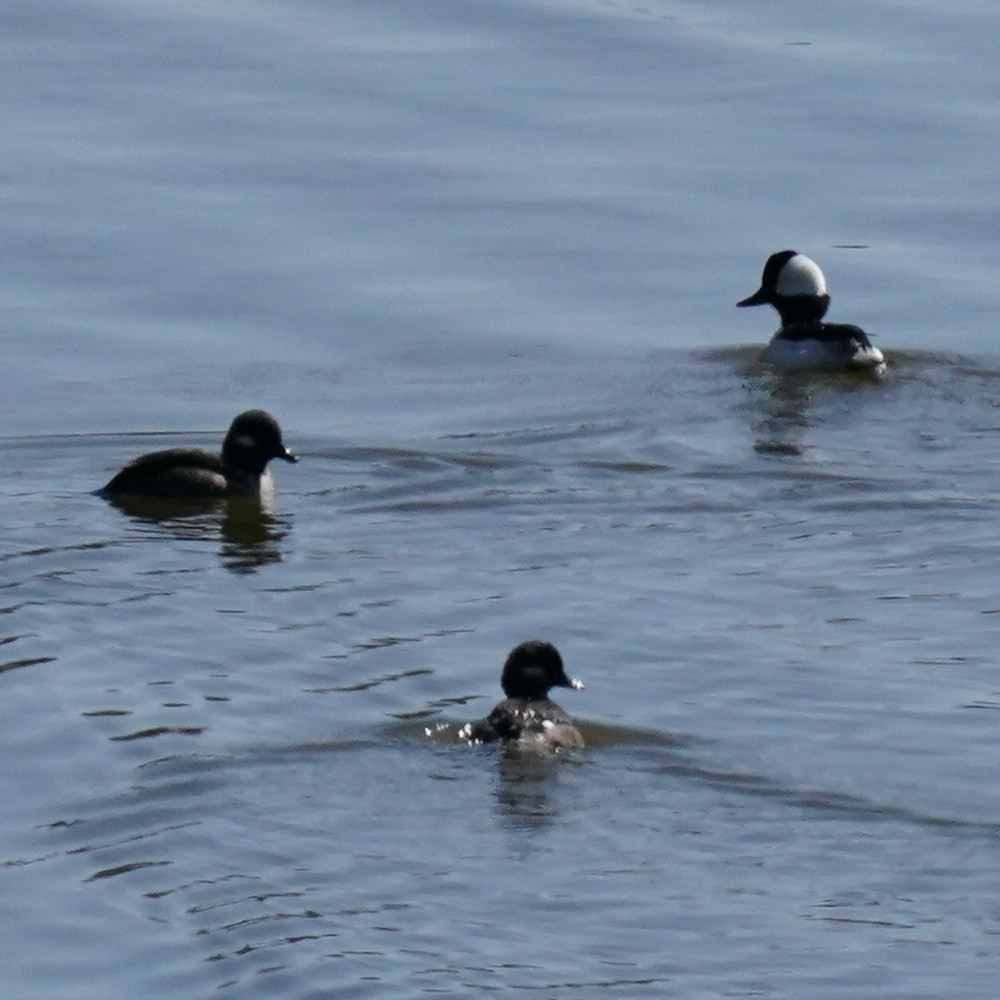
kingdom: Animalia
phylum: Chordata
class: Aves
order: Anseriformes
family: Anatidae
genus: Bucephala
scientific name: Bucephala albeola
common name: Bufflehead
